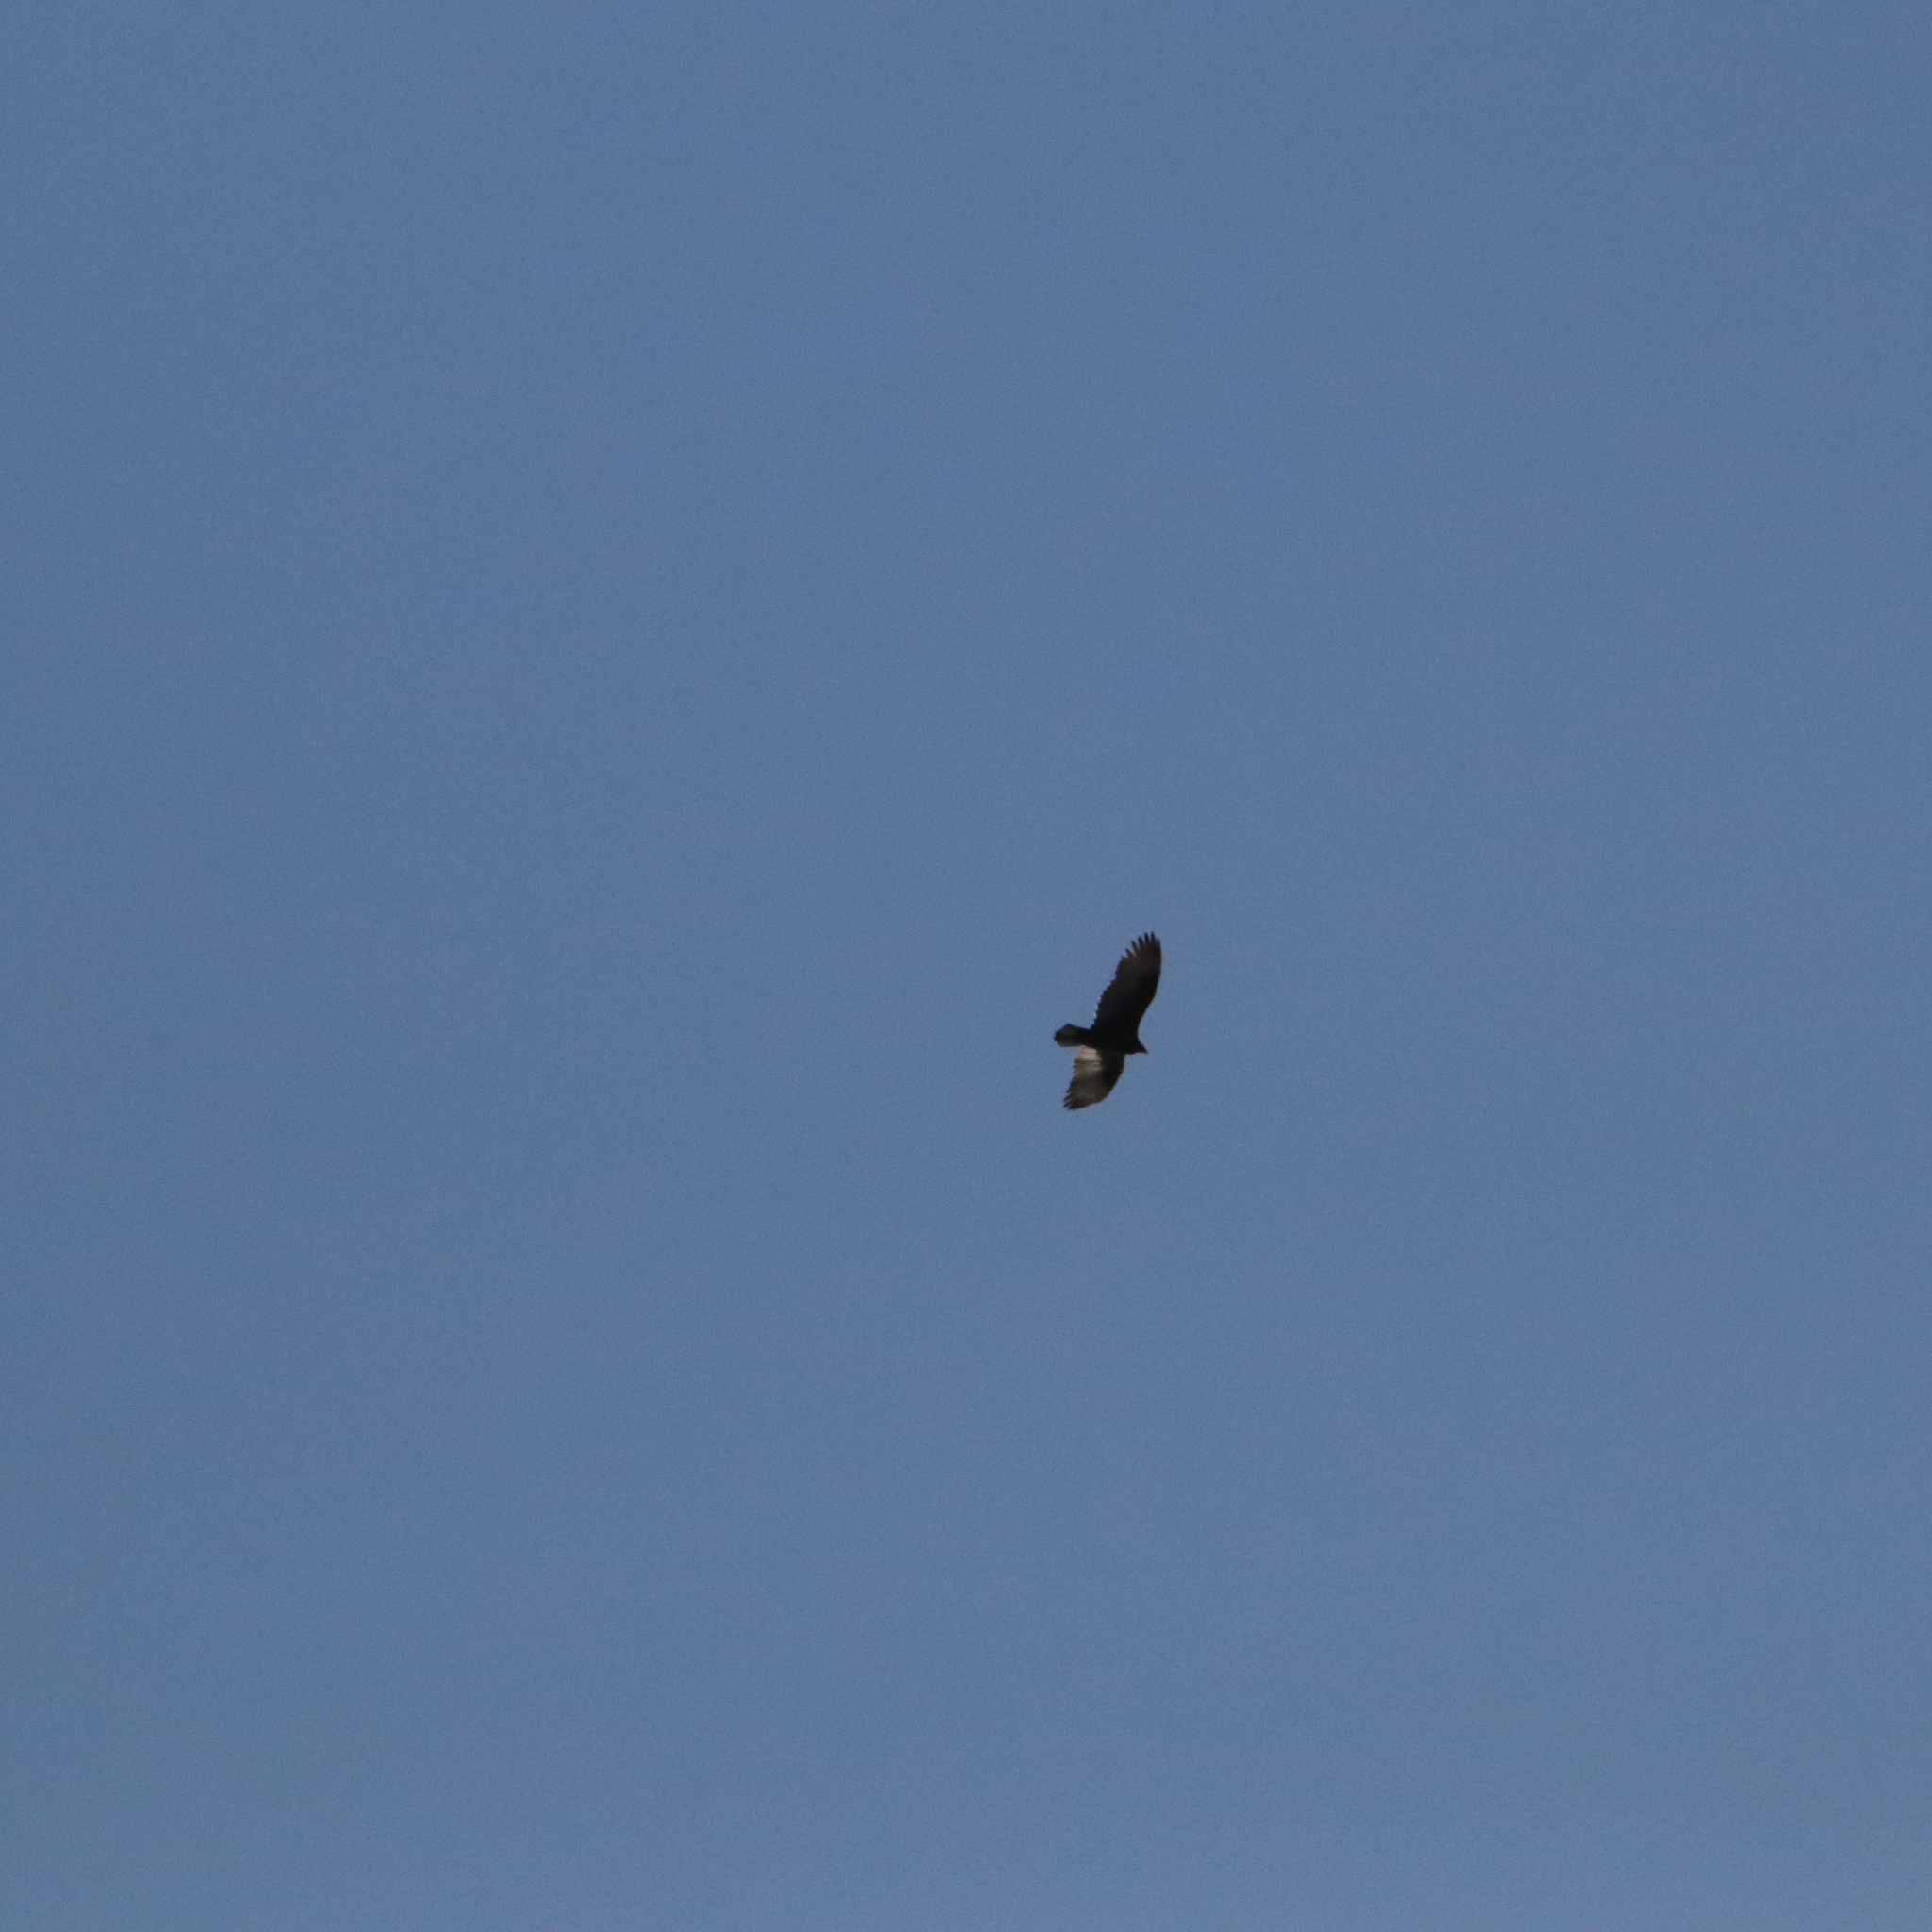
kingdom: Animalia
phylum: Chordata
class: Aves
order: Accipitriformes
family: Cathartidae
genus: Cathartes
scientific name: Cathartes aura
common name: Turkey vulture
